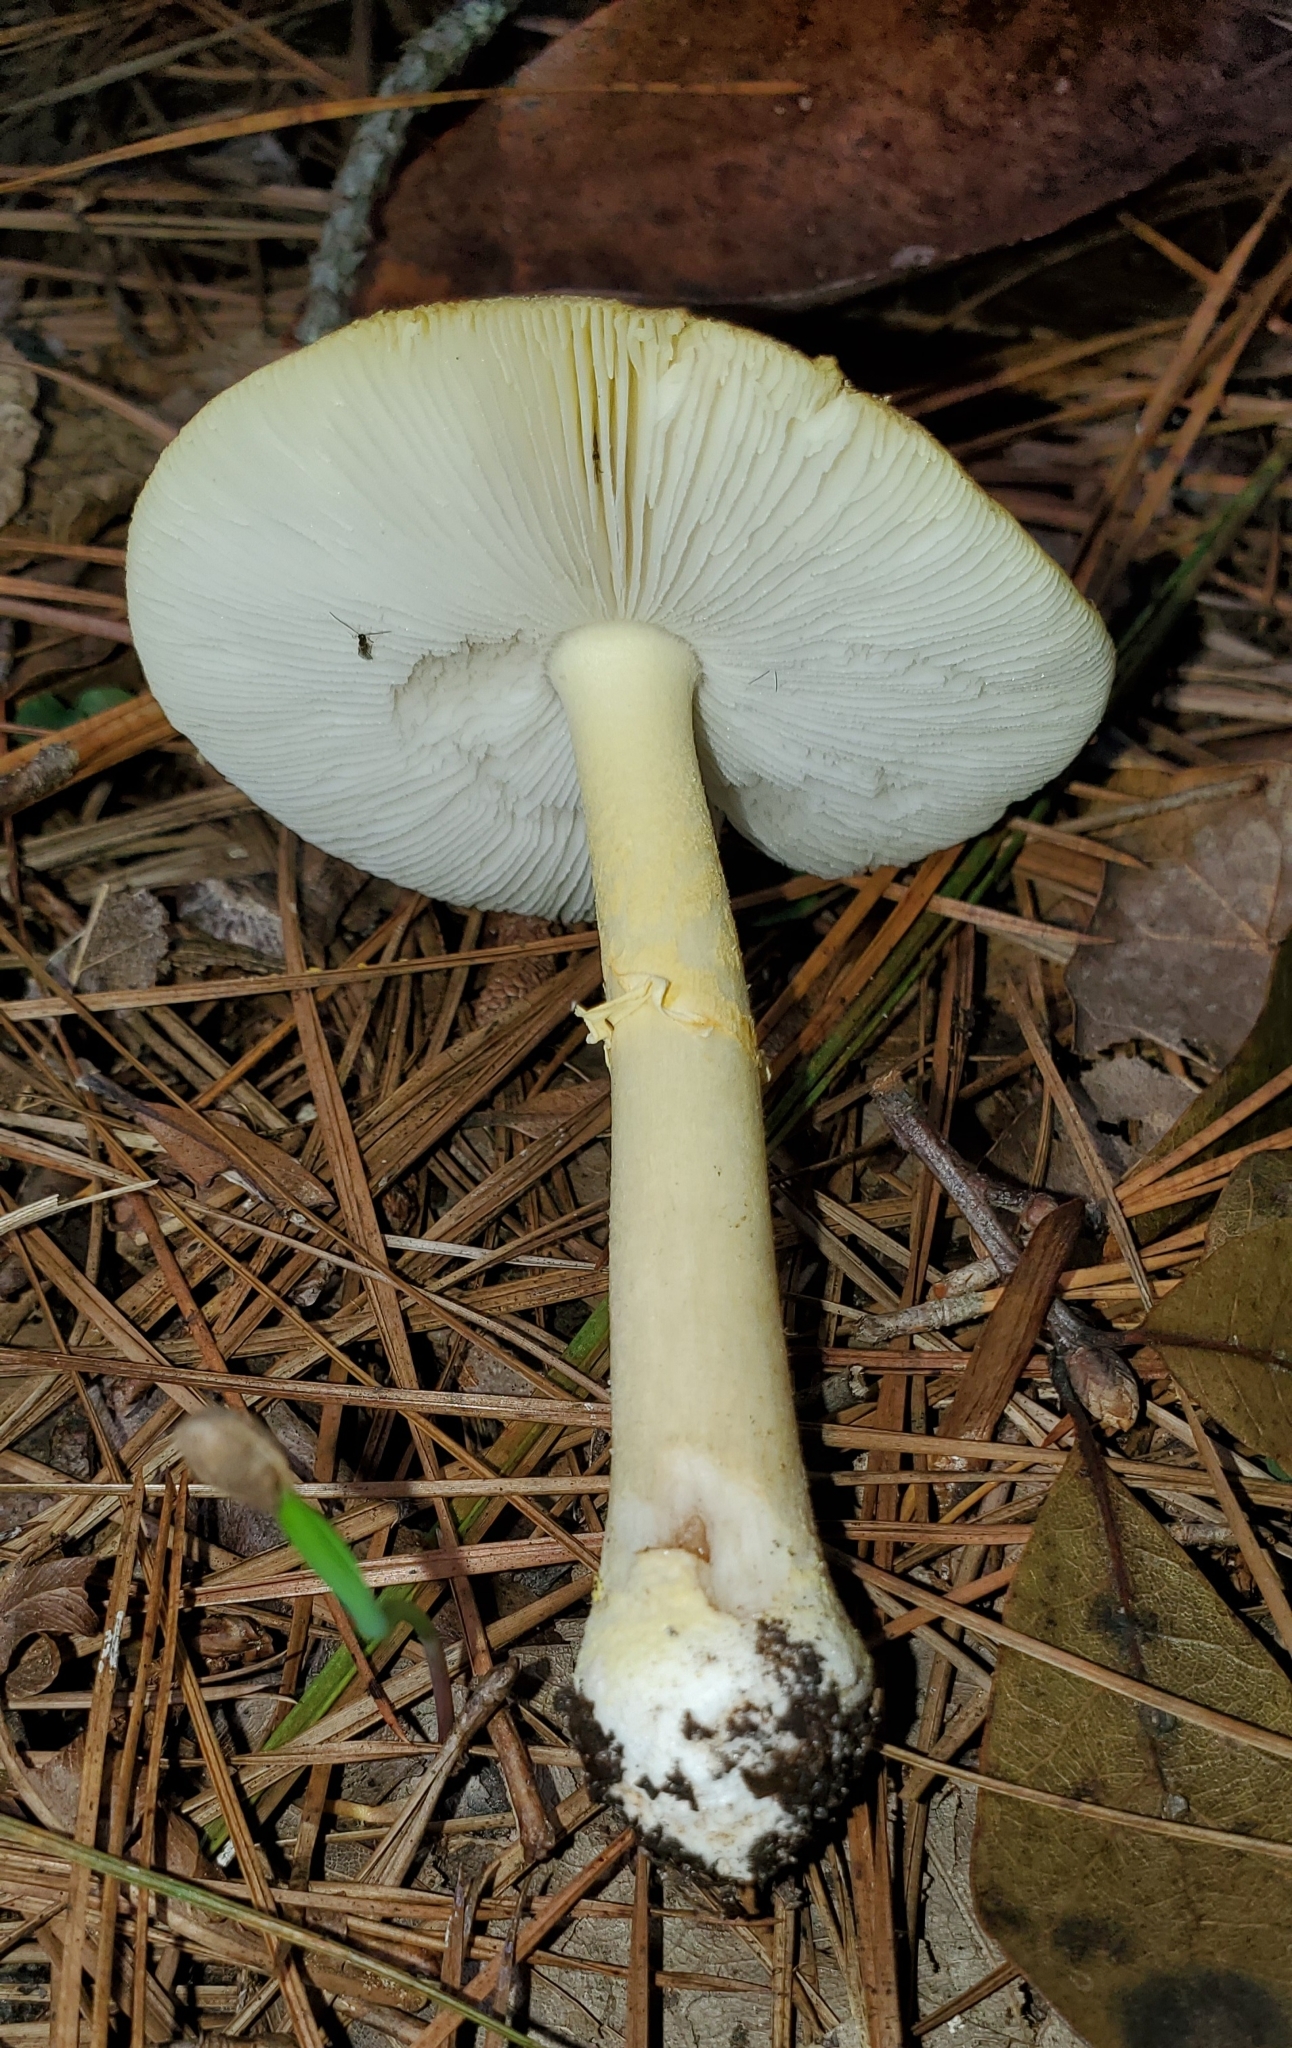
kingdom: Fungi
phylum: Basidiomycota
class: Agaricomycetes
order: Agaricales
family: Amanitaceae
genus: Amanita
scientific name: Amanita flavivolva
